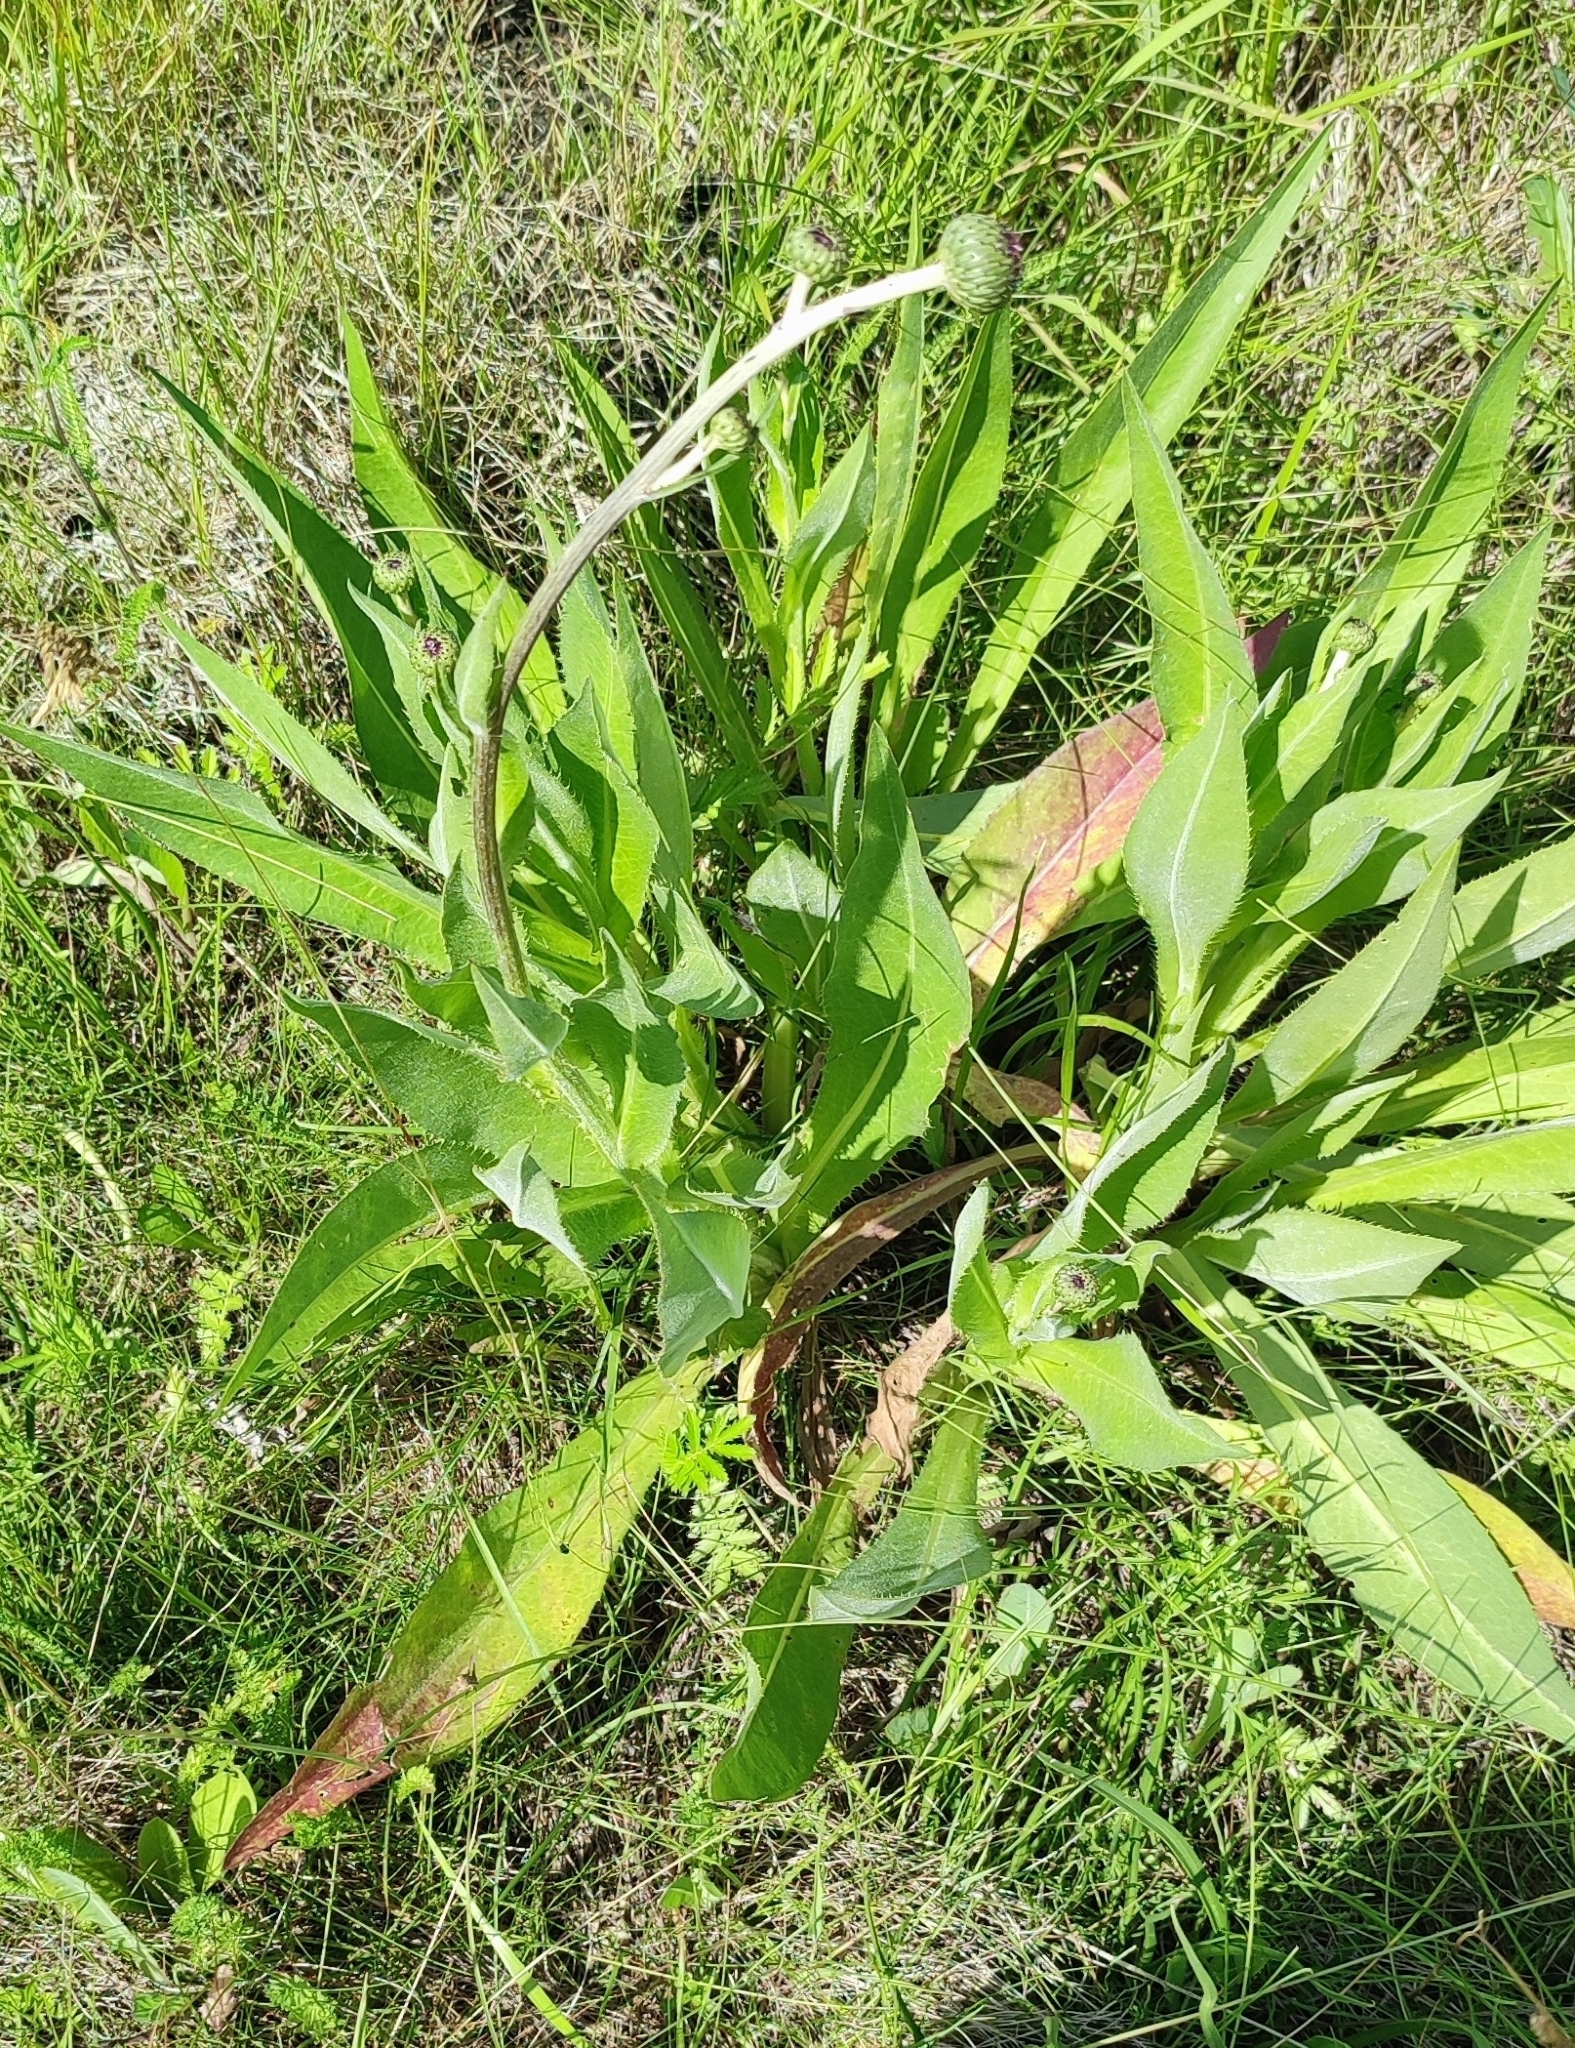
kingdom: Plantae
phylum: Tracheophyta
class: Magnoliopsida
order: Asterales
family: Asteraceae
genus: Cirsium
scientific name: Cirsium canum
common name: Queen anne's thistle
